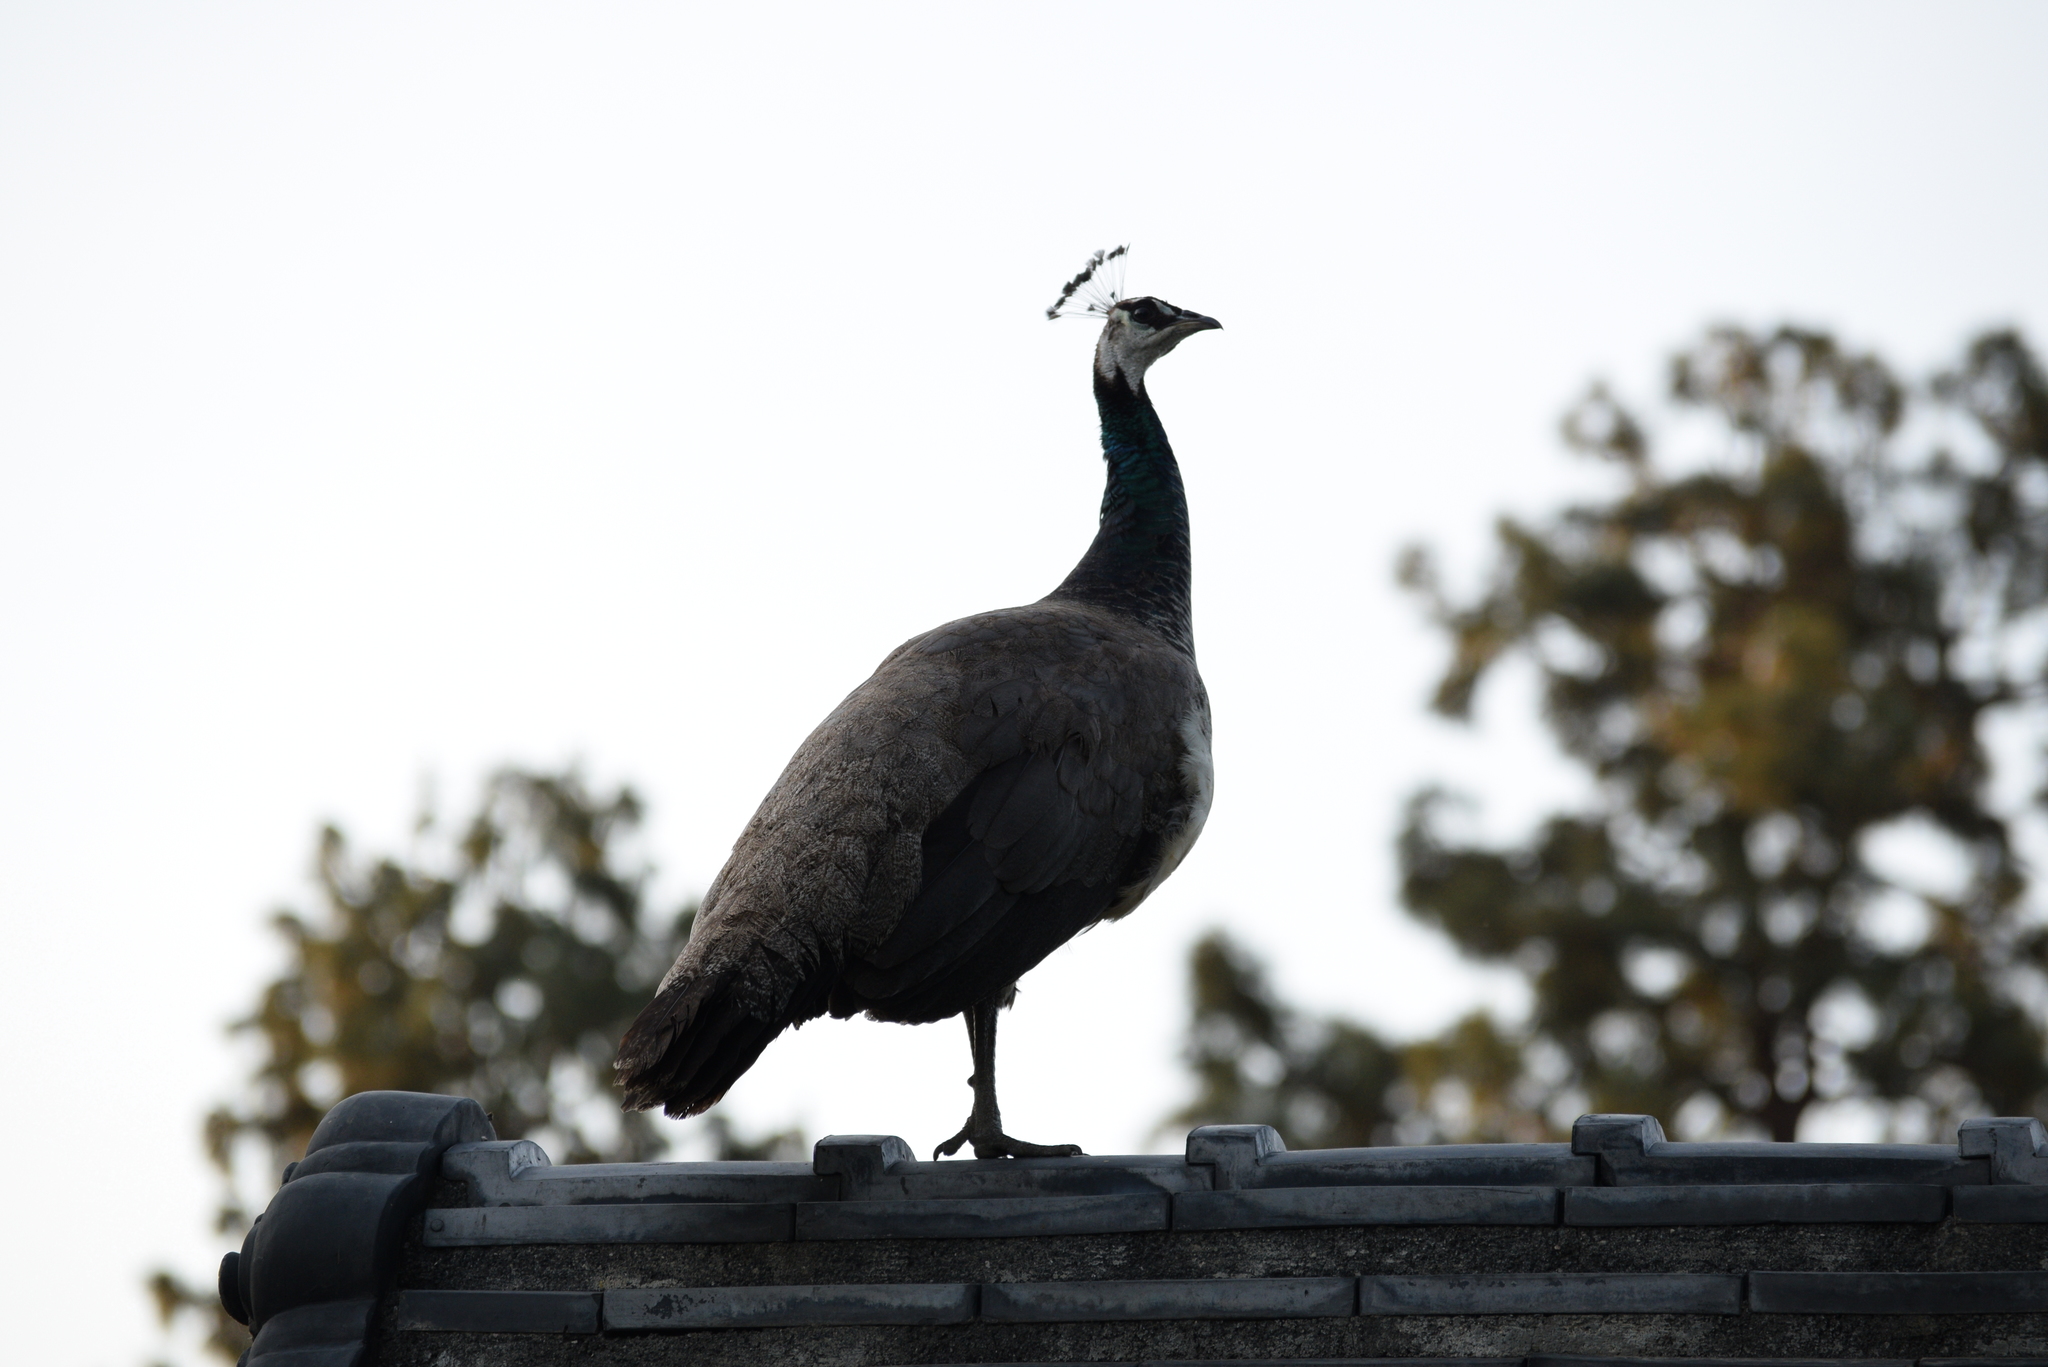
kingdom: Animalia
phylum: Chordata
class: Aves
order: Galliformes
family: Phasianidae
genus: Pavo
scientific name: Pavo cristatus
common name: Indian peafowl
